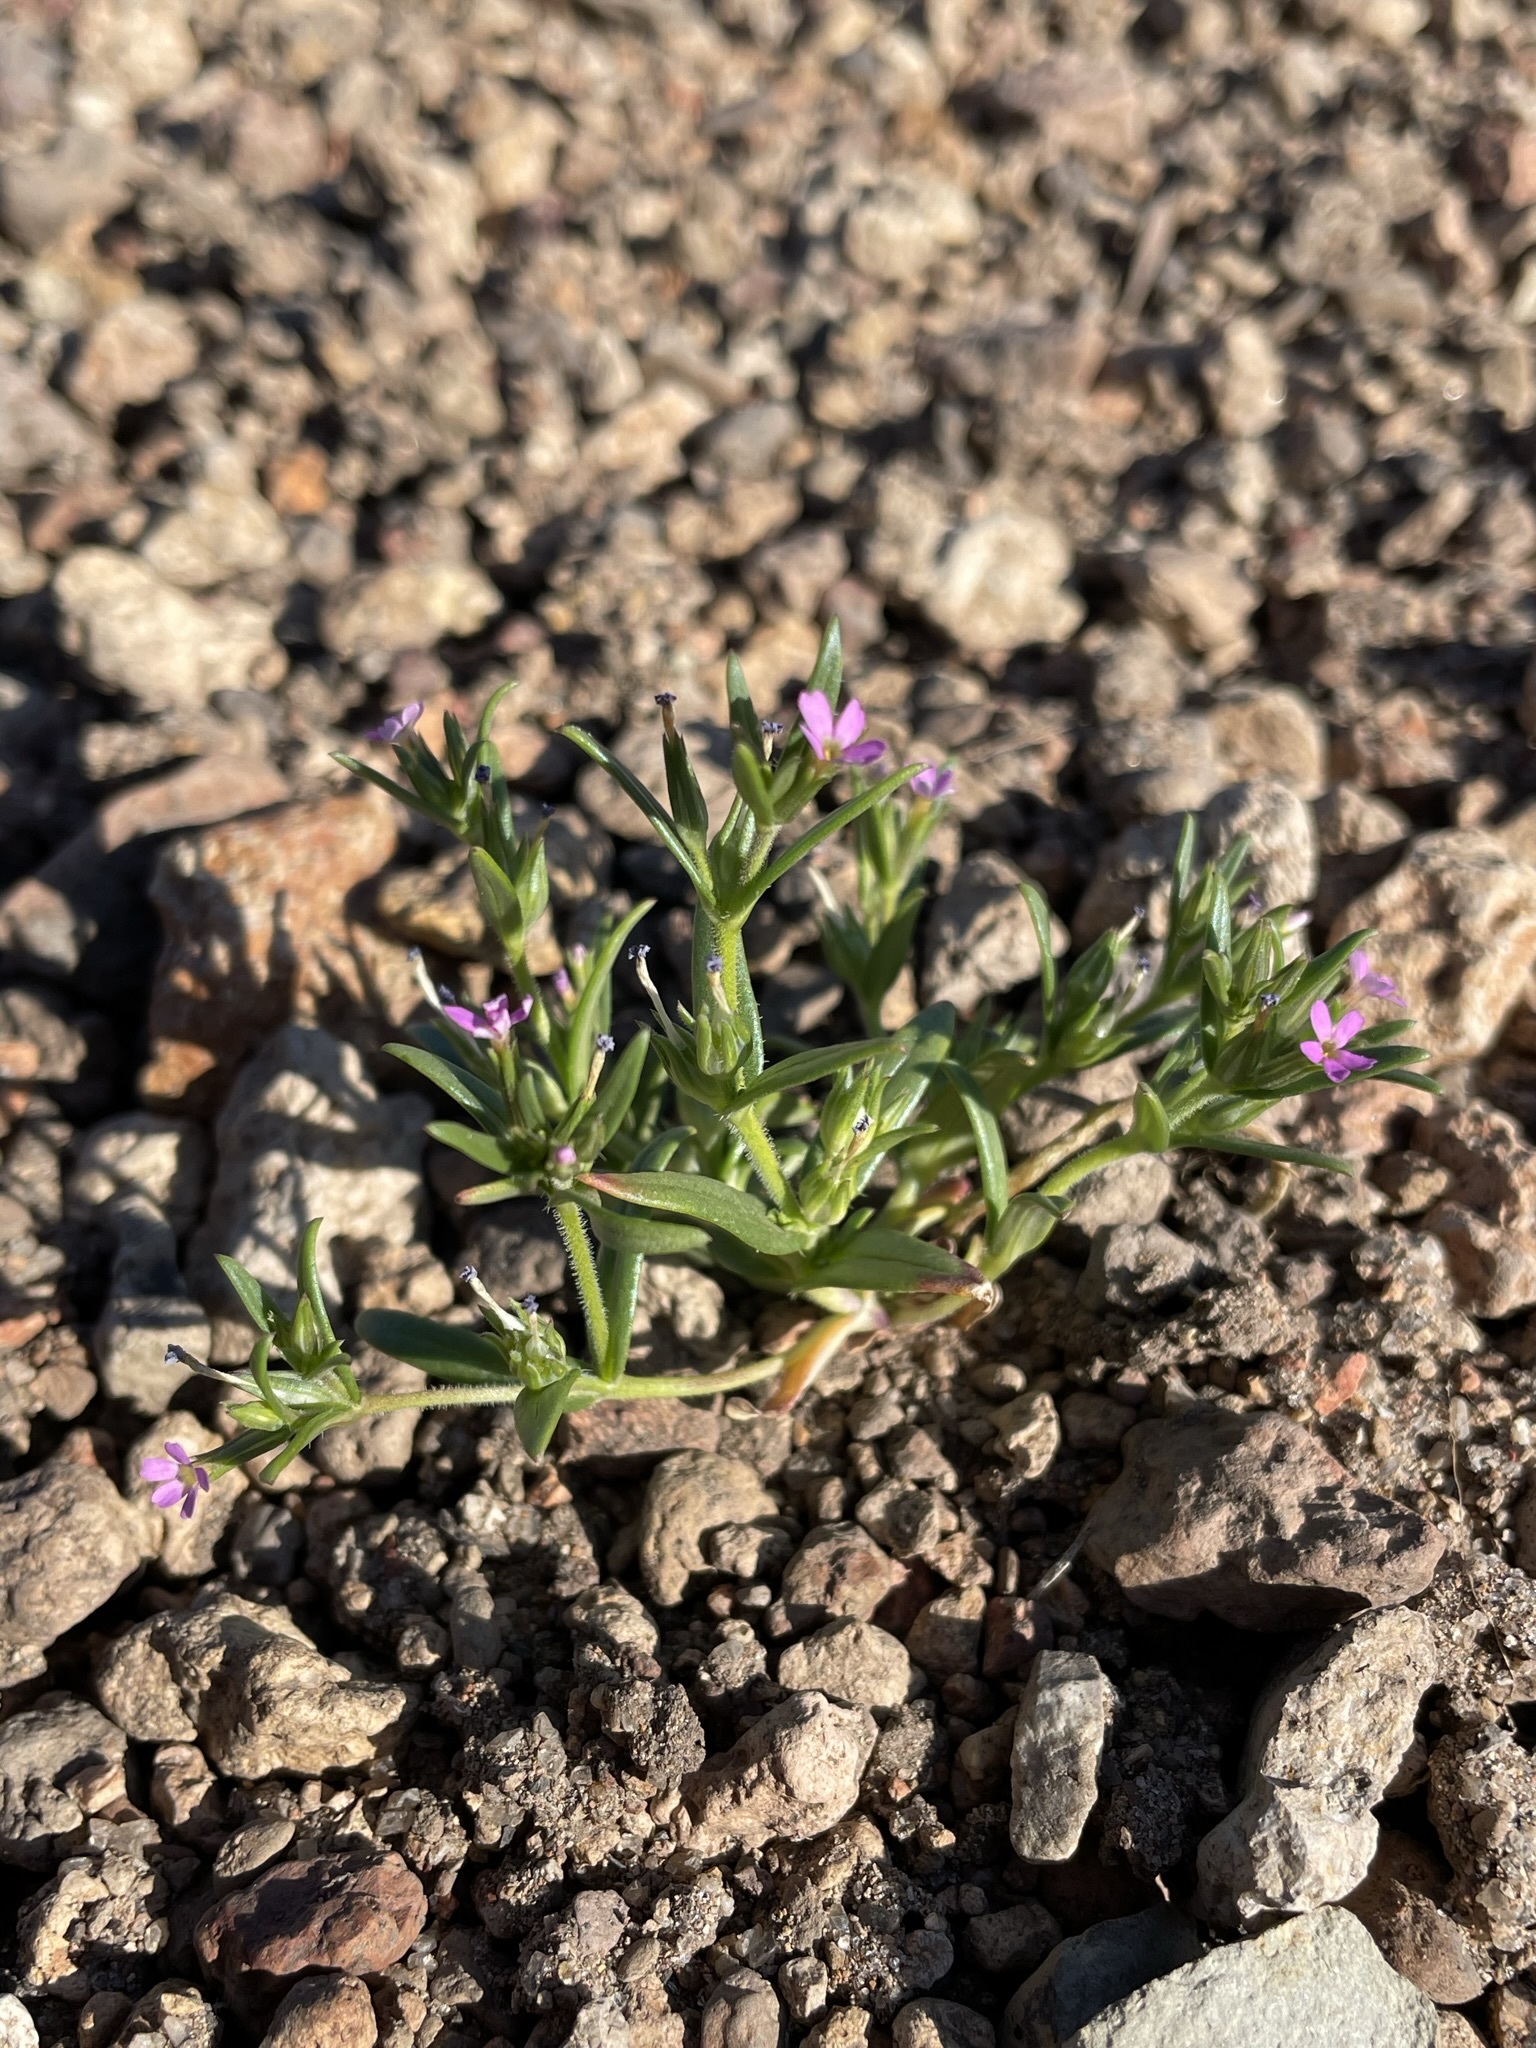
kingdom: Plantae
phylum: Tracheophyta
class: Magnoliopsida
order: Ericales
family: Polemoniaceae
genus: Phlox
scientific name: Phlox gracilis
